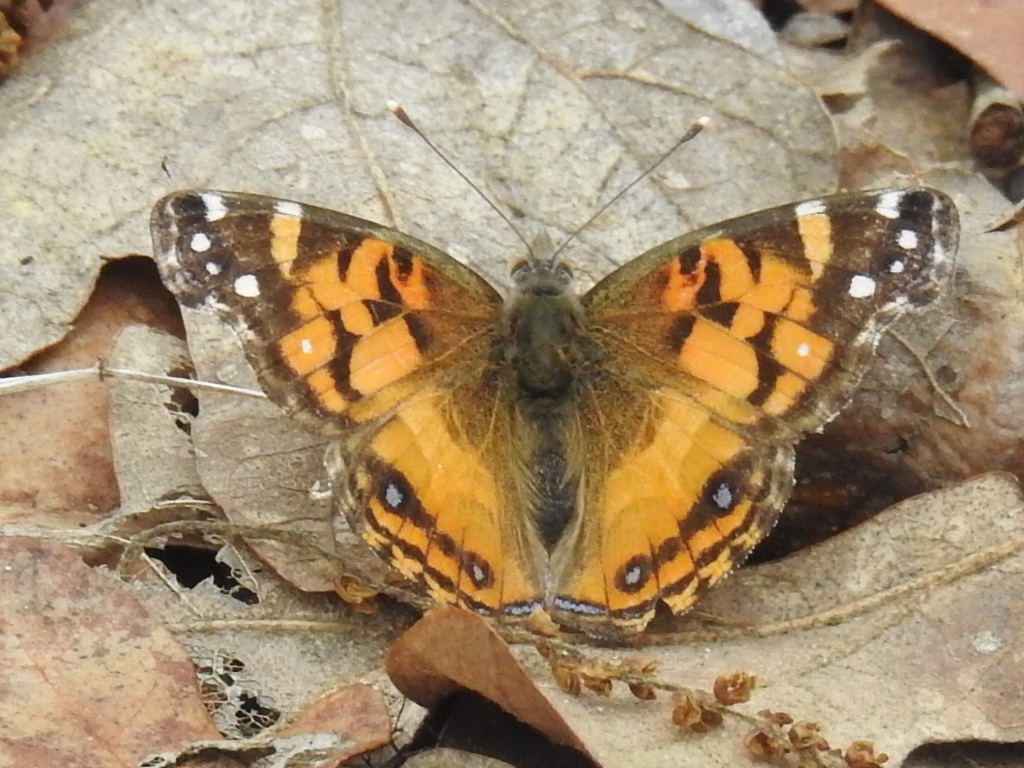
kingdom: Animalia
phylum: Arthropoda
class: Insecta
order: Lepidoptera
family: Nymphalidae
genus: Vanessa
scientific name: Vanessa virginiensis
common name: American lady
